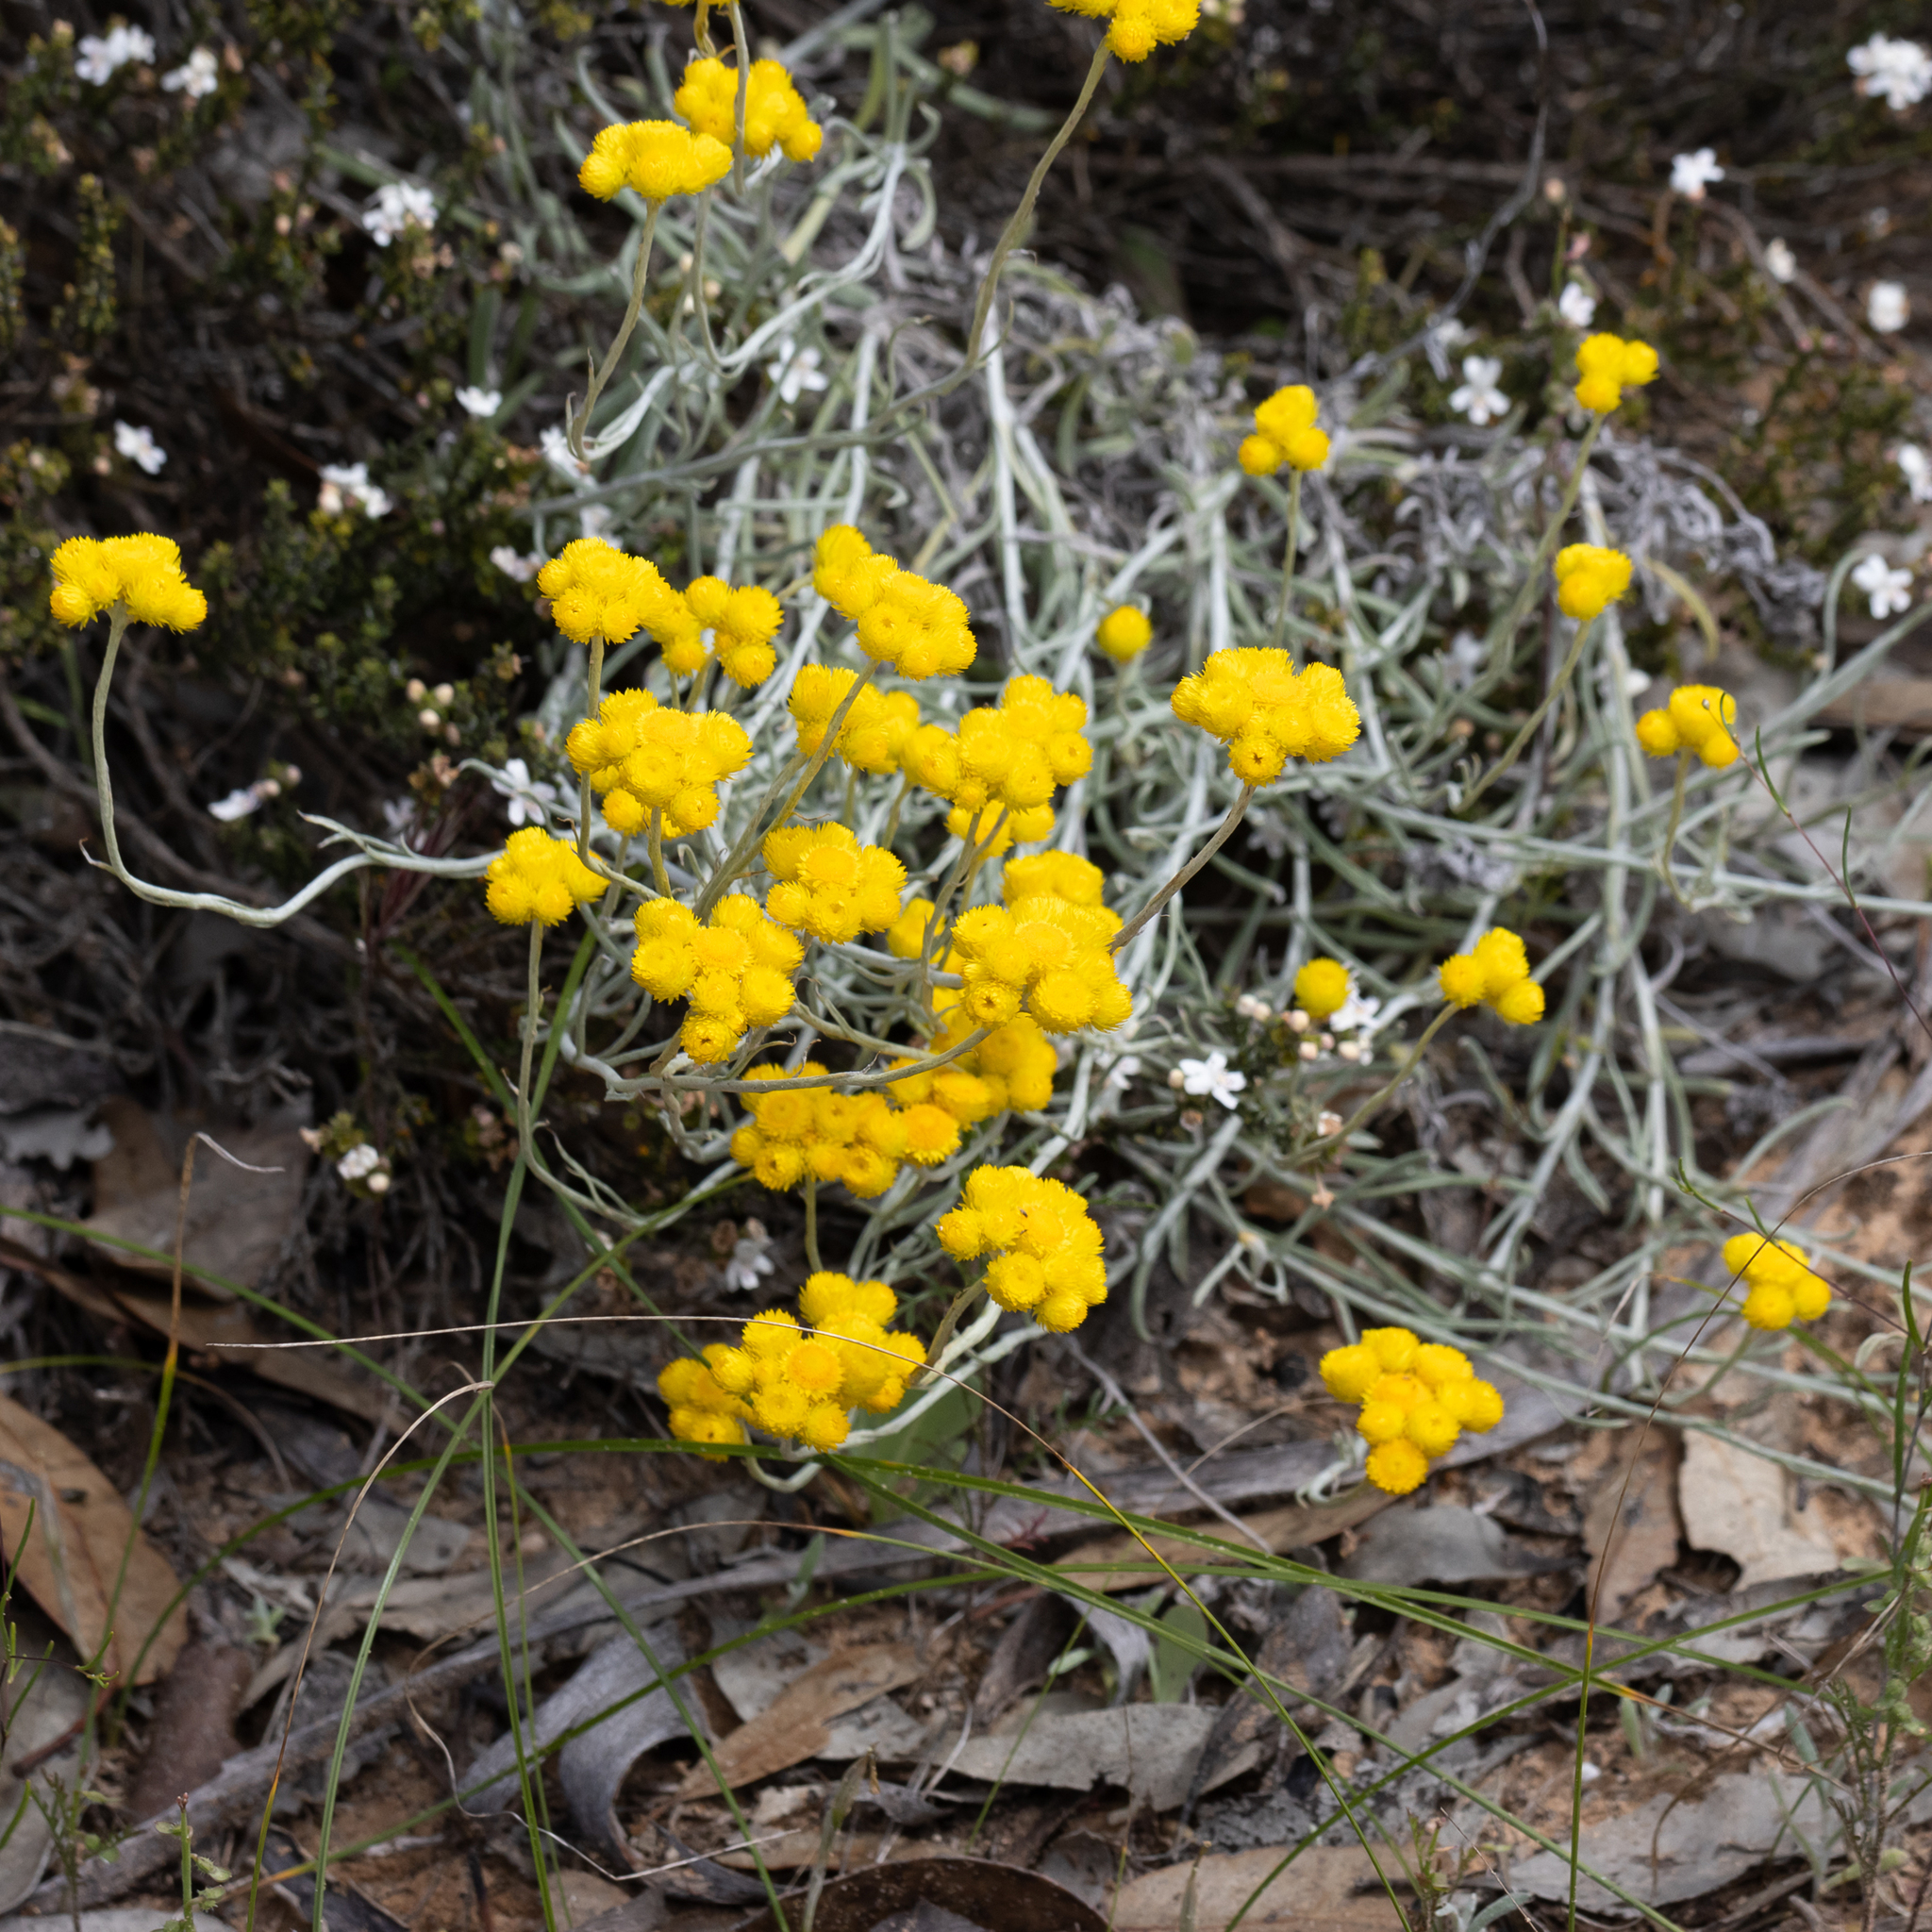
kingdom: Plantae
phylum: Tracheophyta
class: Magnoliopsida
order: Asterales
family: Asteraceae
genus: Chrysocephalum
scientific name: Chrysocephalum apiculatum
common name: Common everlasting
